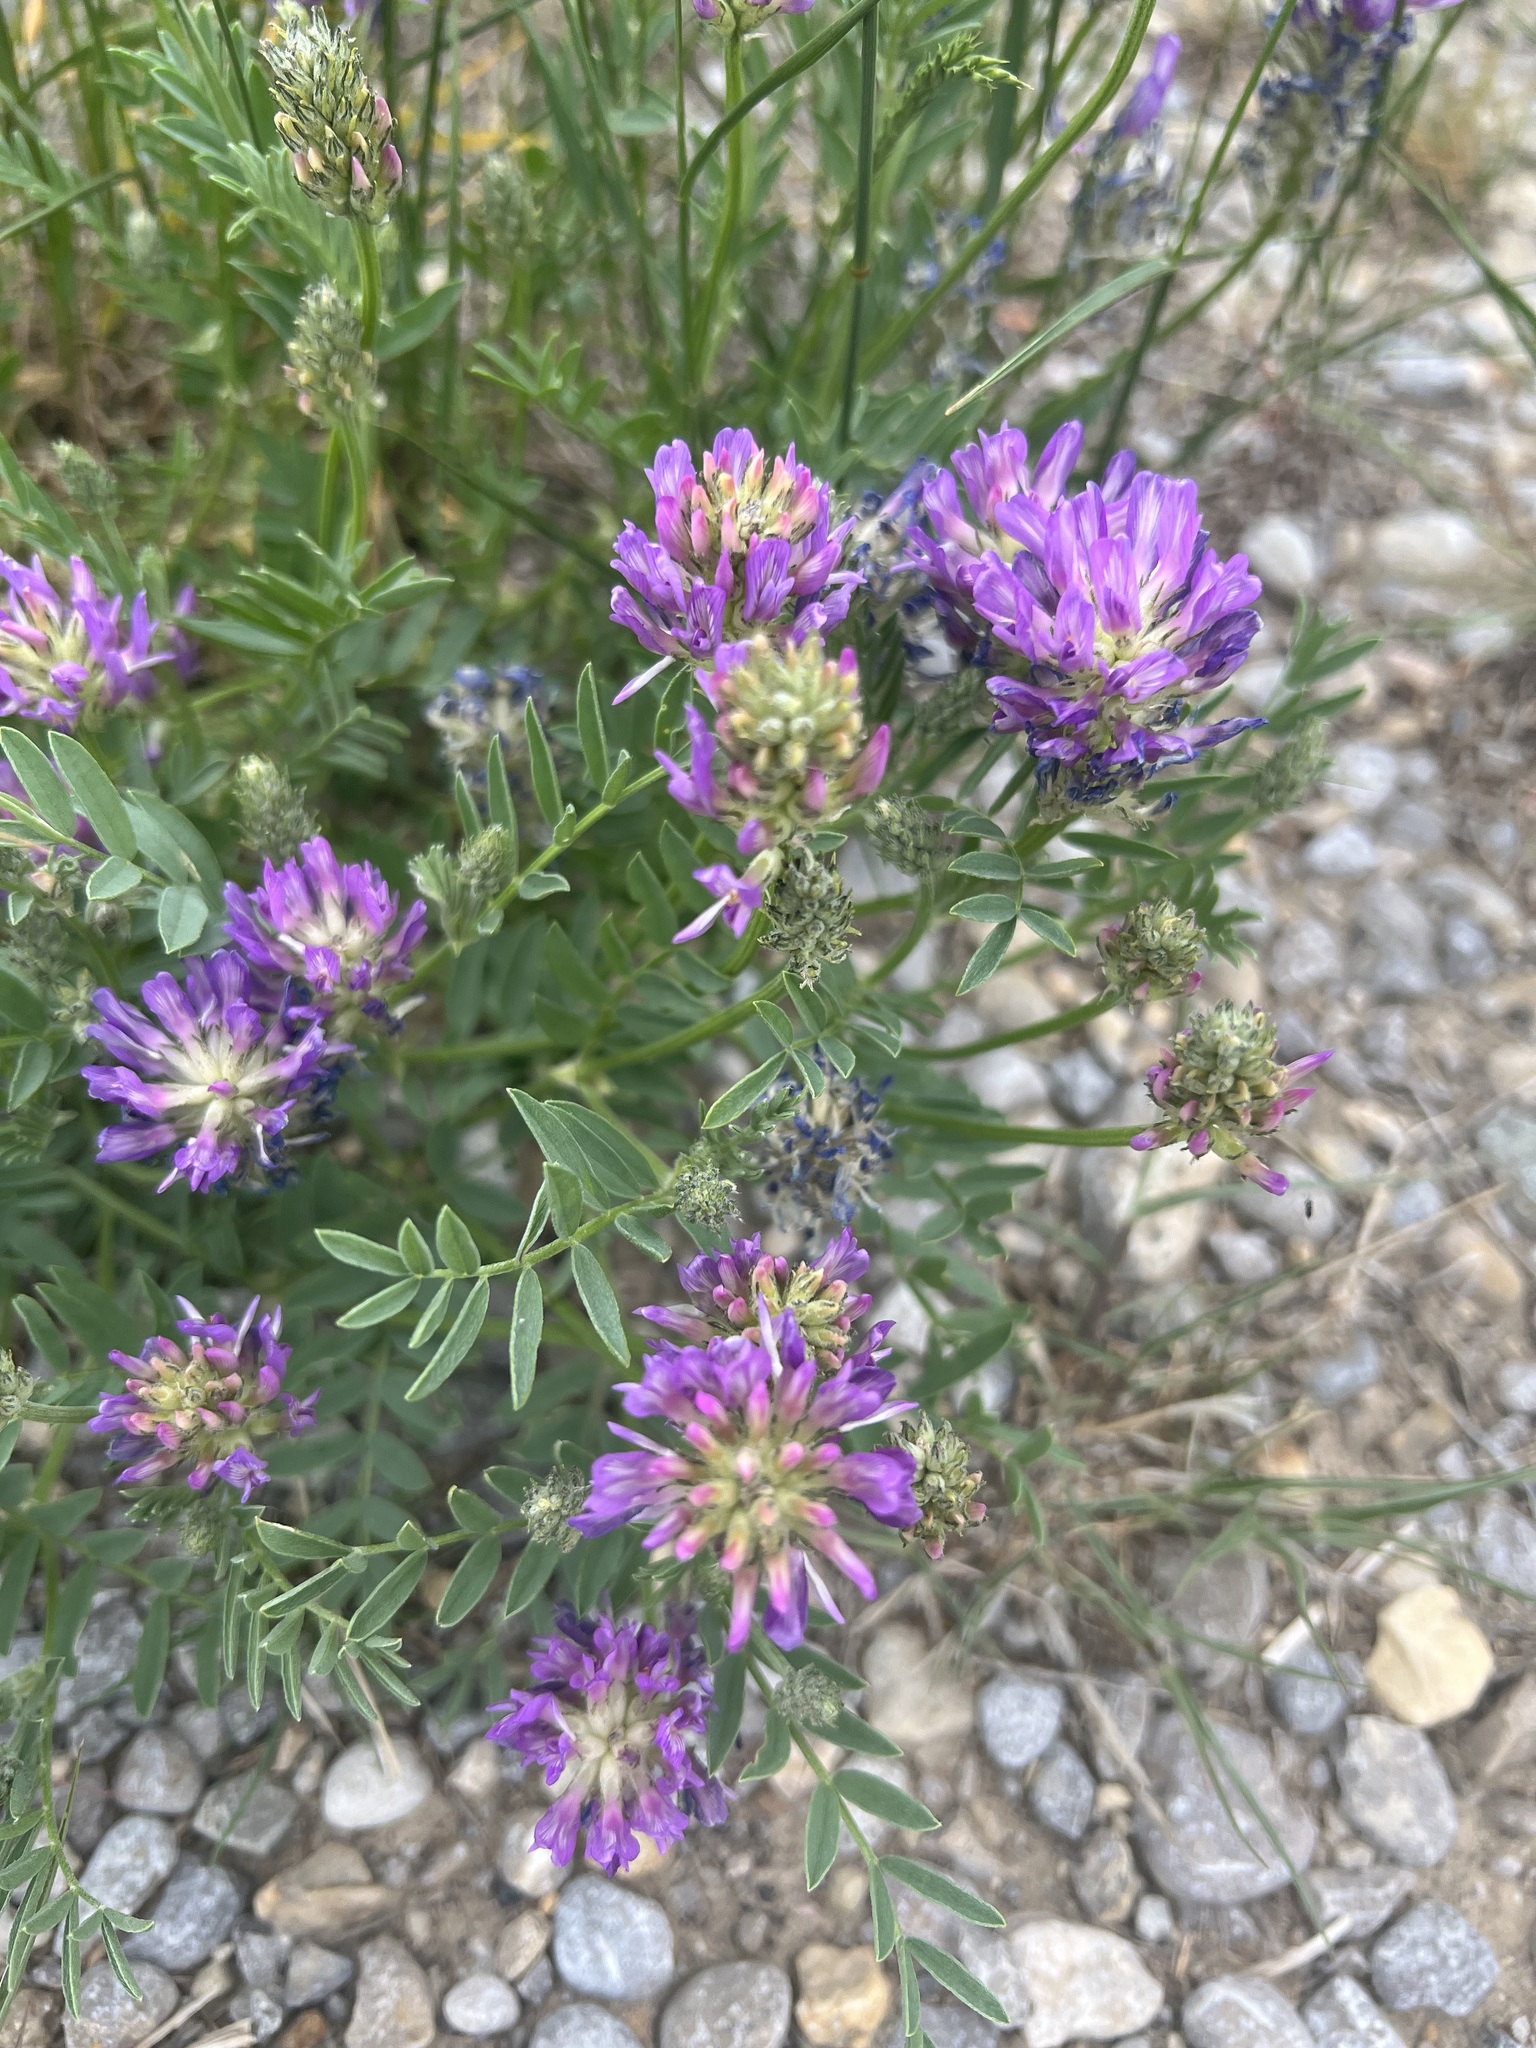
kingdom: Plantae
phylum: Tracheophyta
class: Magnoliopsida
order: Fabales
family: Fabaceae
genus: Astragalus
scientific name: Astragalus laxmannii
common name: Laxmann's milk-vetch
